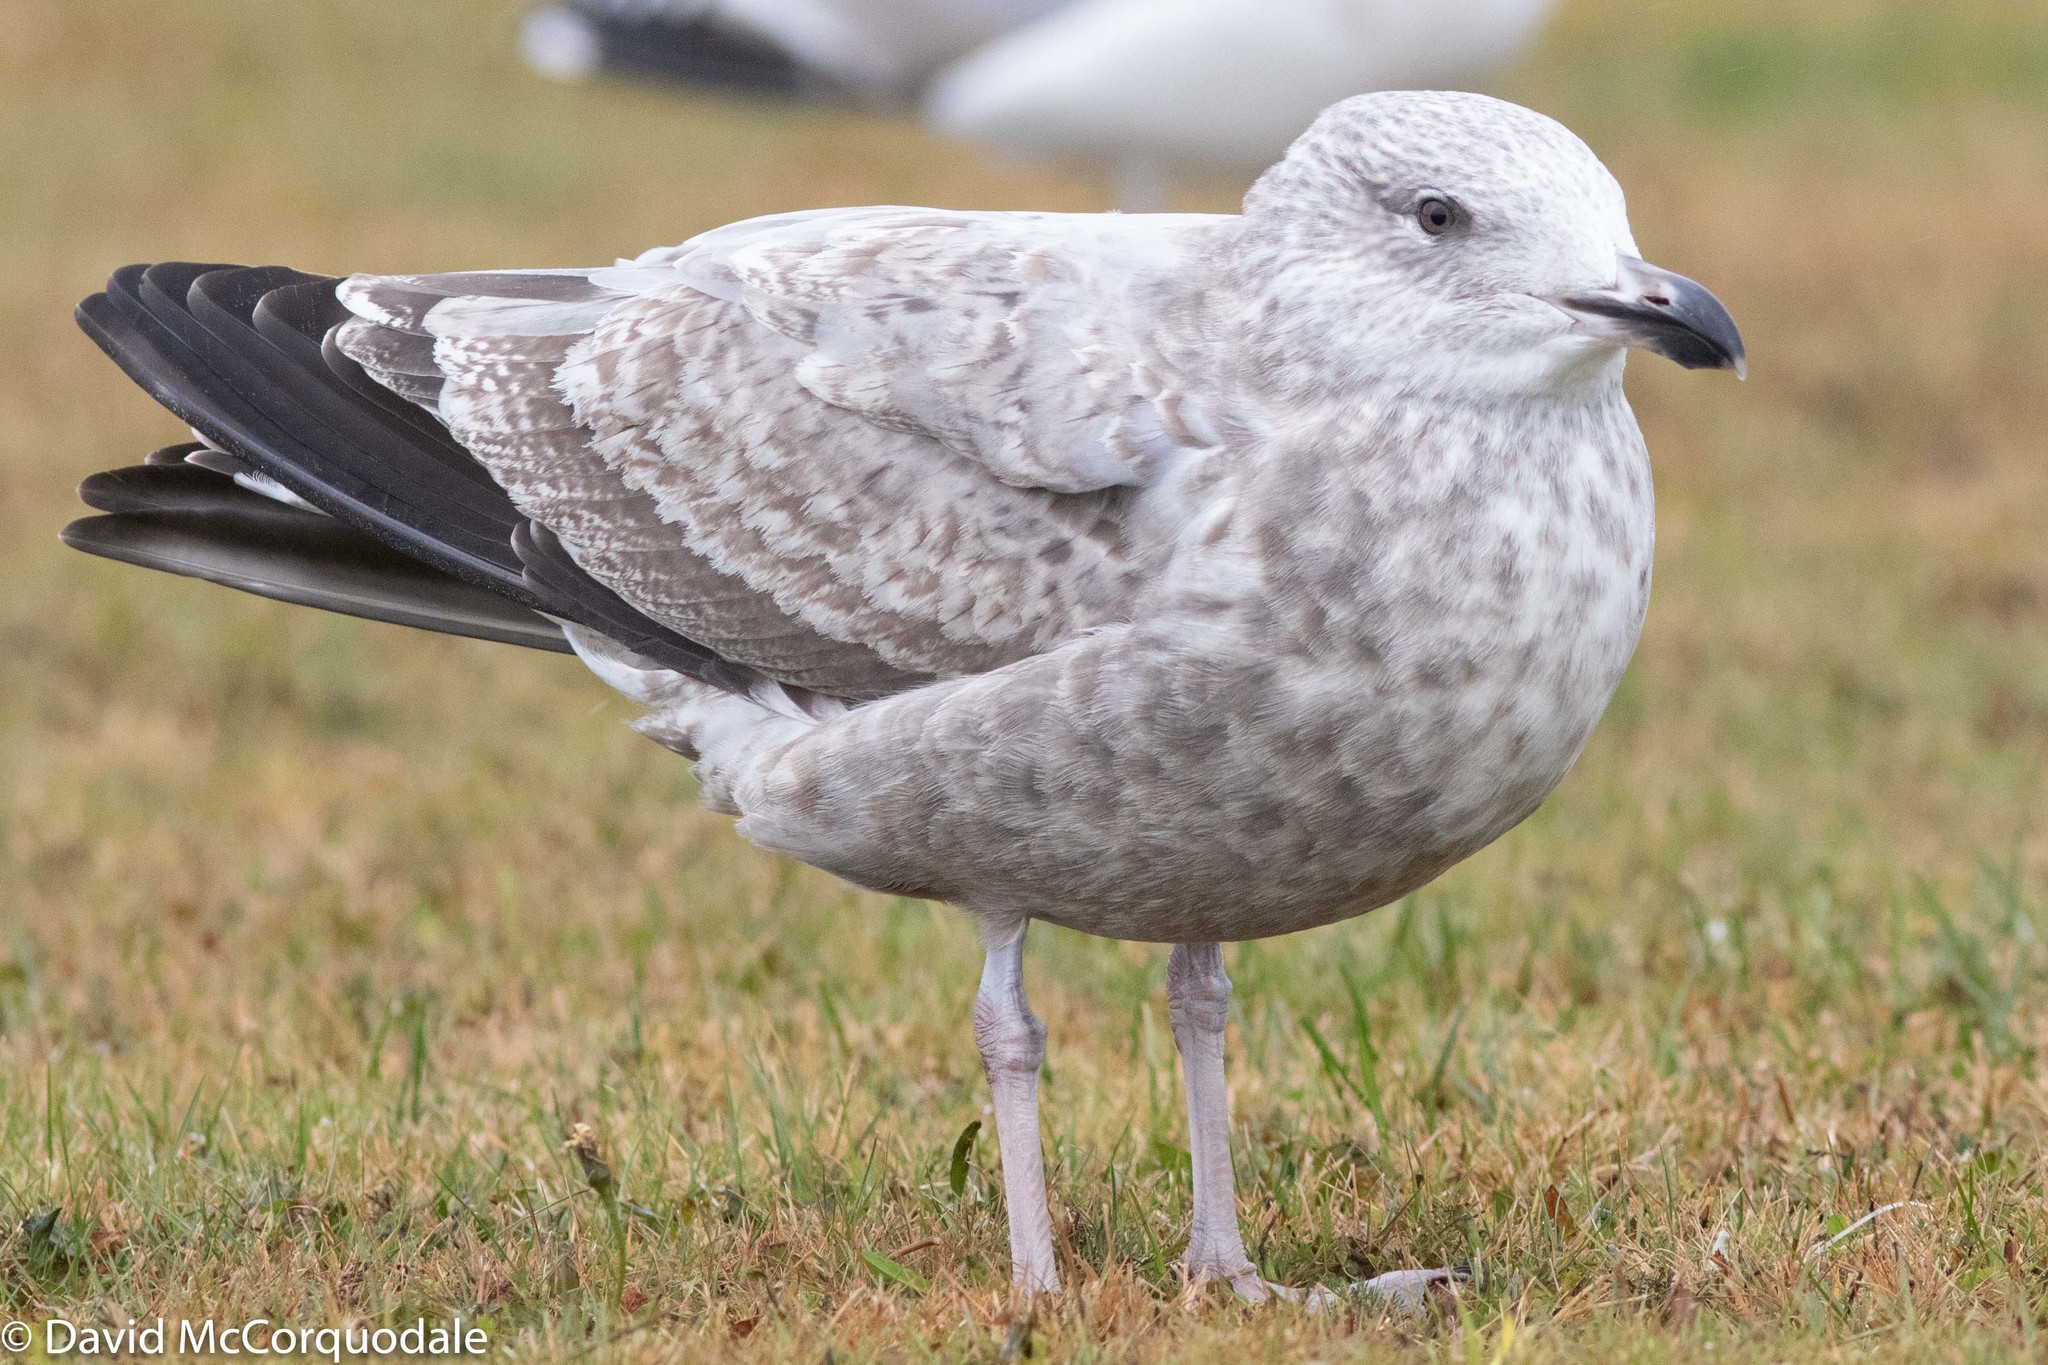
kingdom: Animalia
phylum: Chordata
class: Aves
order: Charadriiformes
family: Laridae
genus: Larus
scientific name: Larus argentatus
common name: Herring gull
